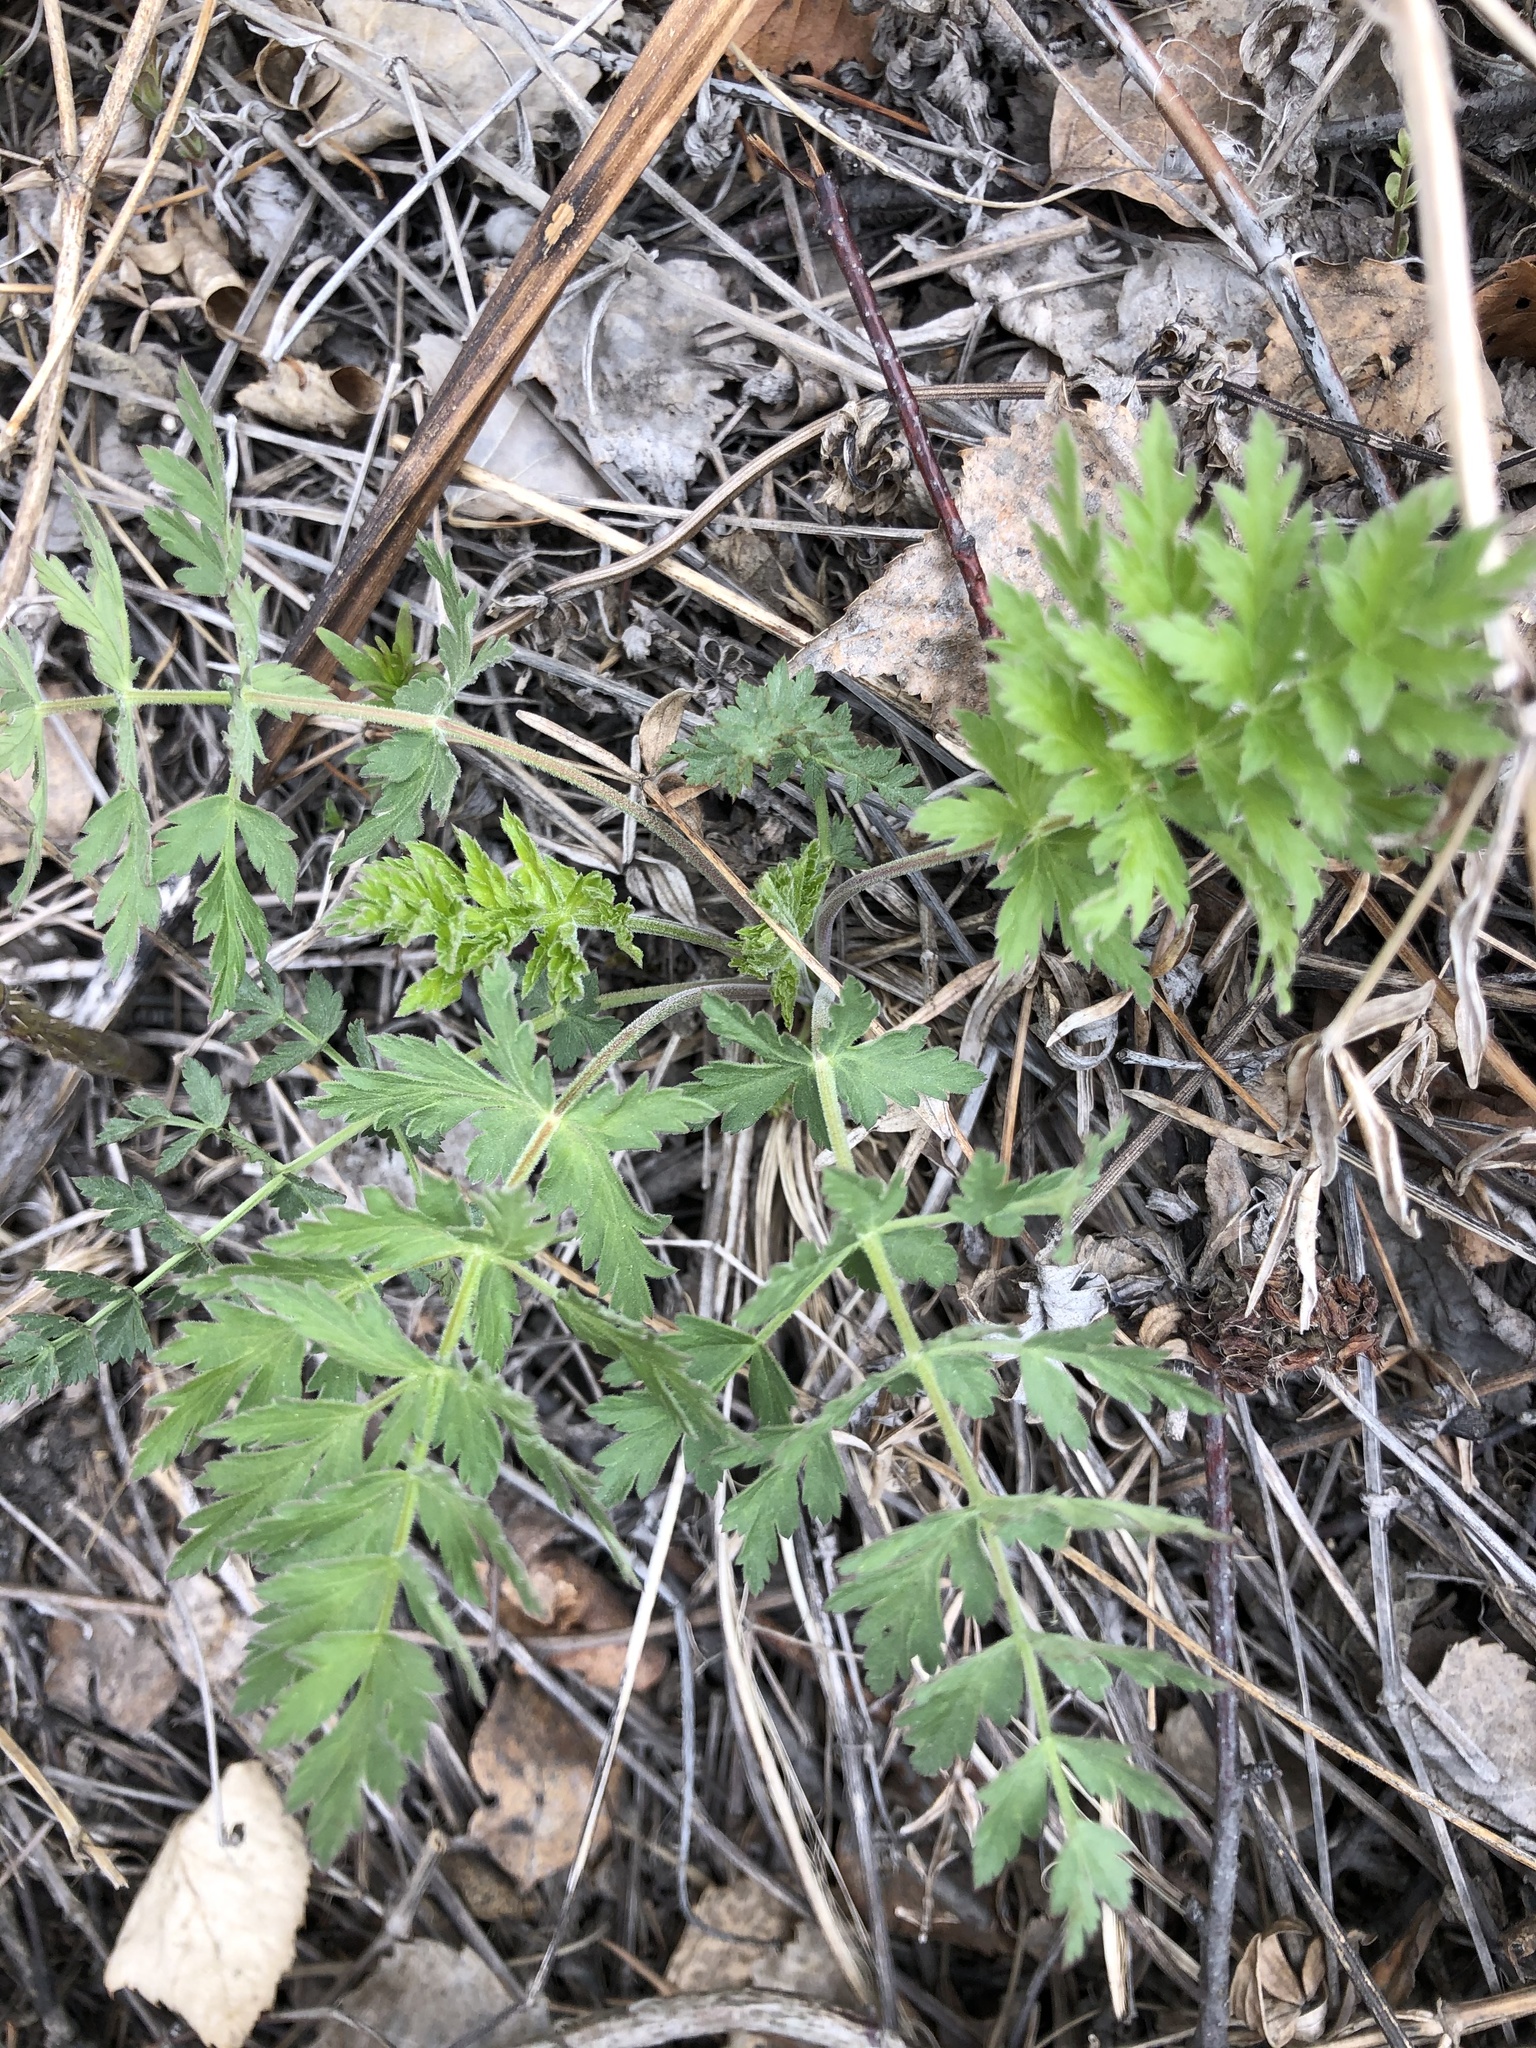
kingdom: Plantae
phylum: Tracheophyta
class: Magnoliopsida
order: Apiales
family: Apiaceae
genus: Seseli
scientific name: Seseli libanotis
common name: Mooncarrot
